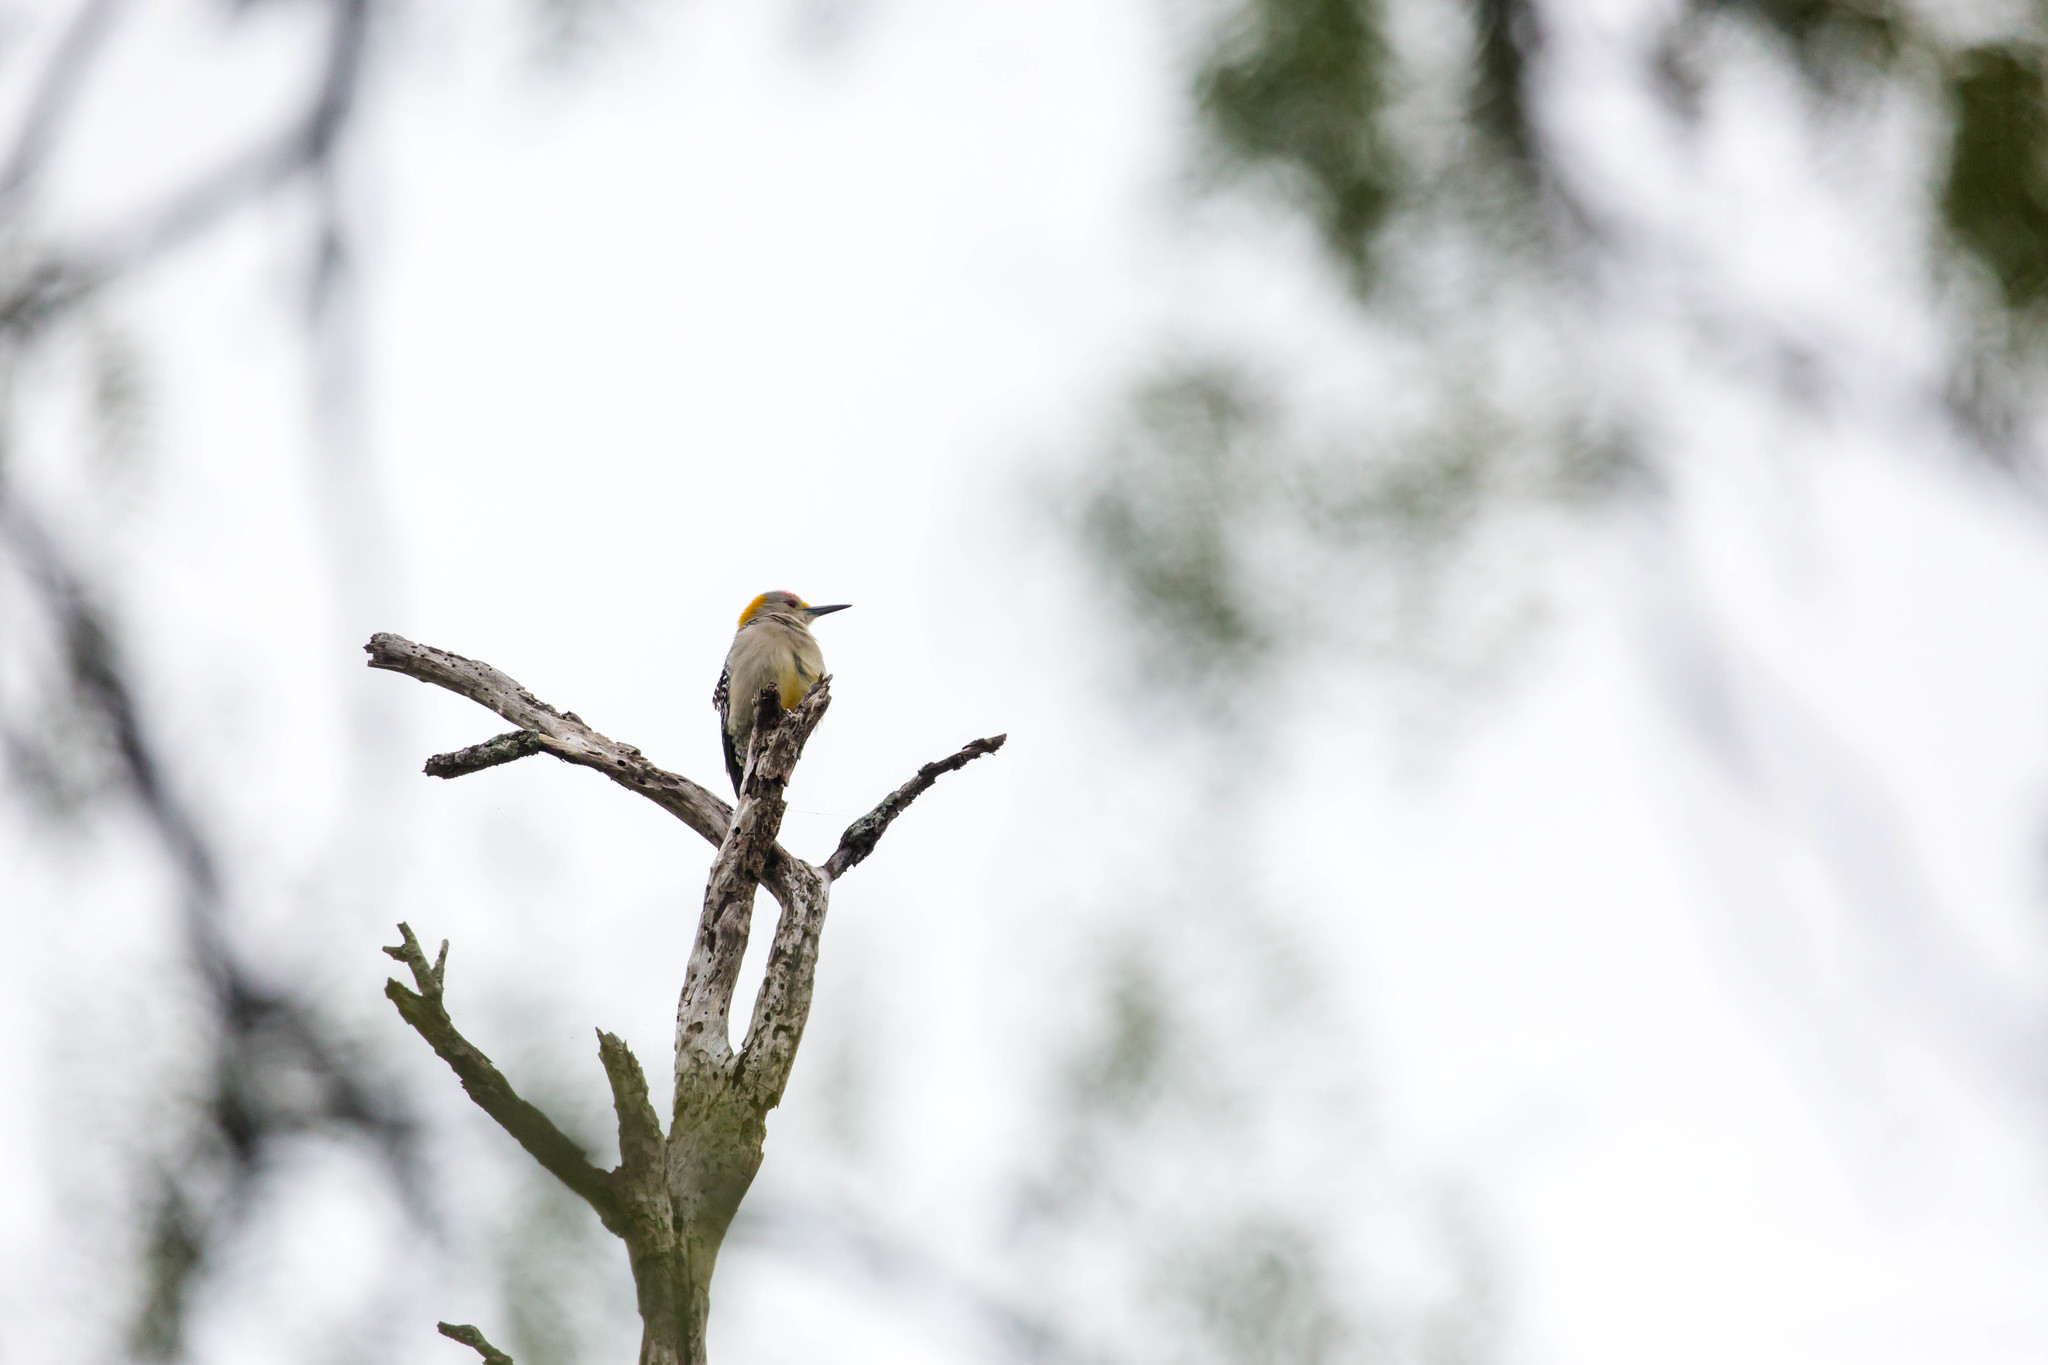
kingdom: Animalia
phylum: Chordata
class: Aves
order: Piciformes
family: Picidae
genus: Melanerpes
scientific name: Melanerpes aurifrons
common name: Golden-fronted woodpecker
